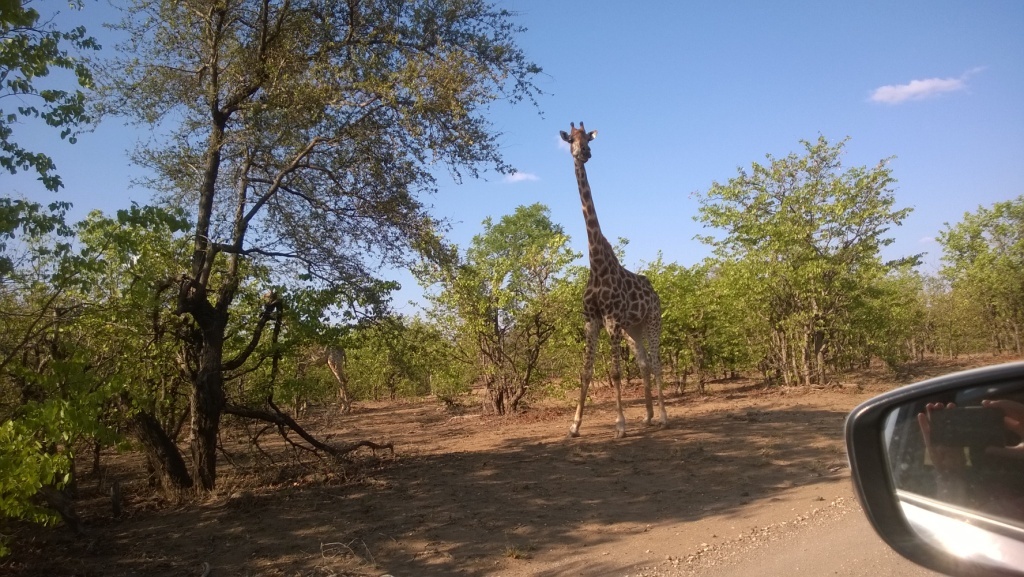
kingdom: Animalia
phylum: Chordata
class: Mammalia
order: Artiodactyla
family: Giraffidae
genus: Giraffa
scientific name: Giraffa giraffa
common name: Southern giraffe
